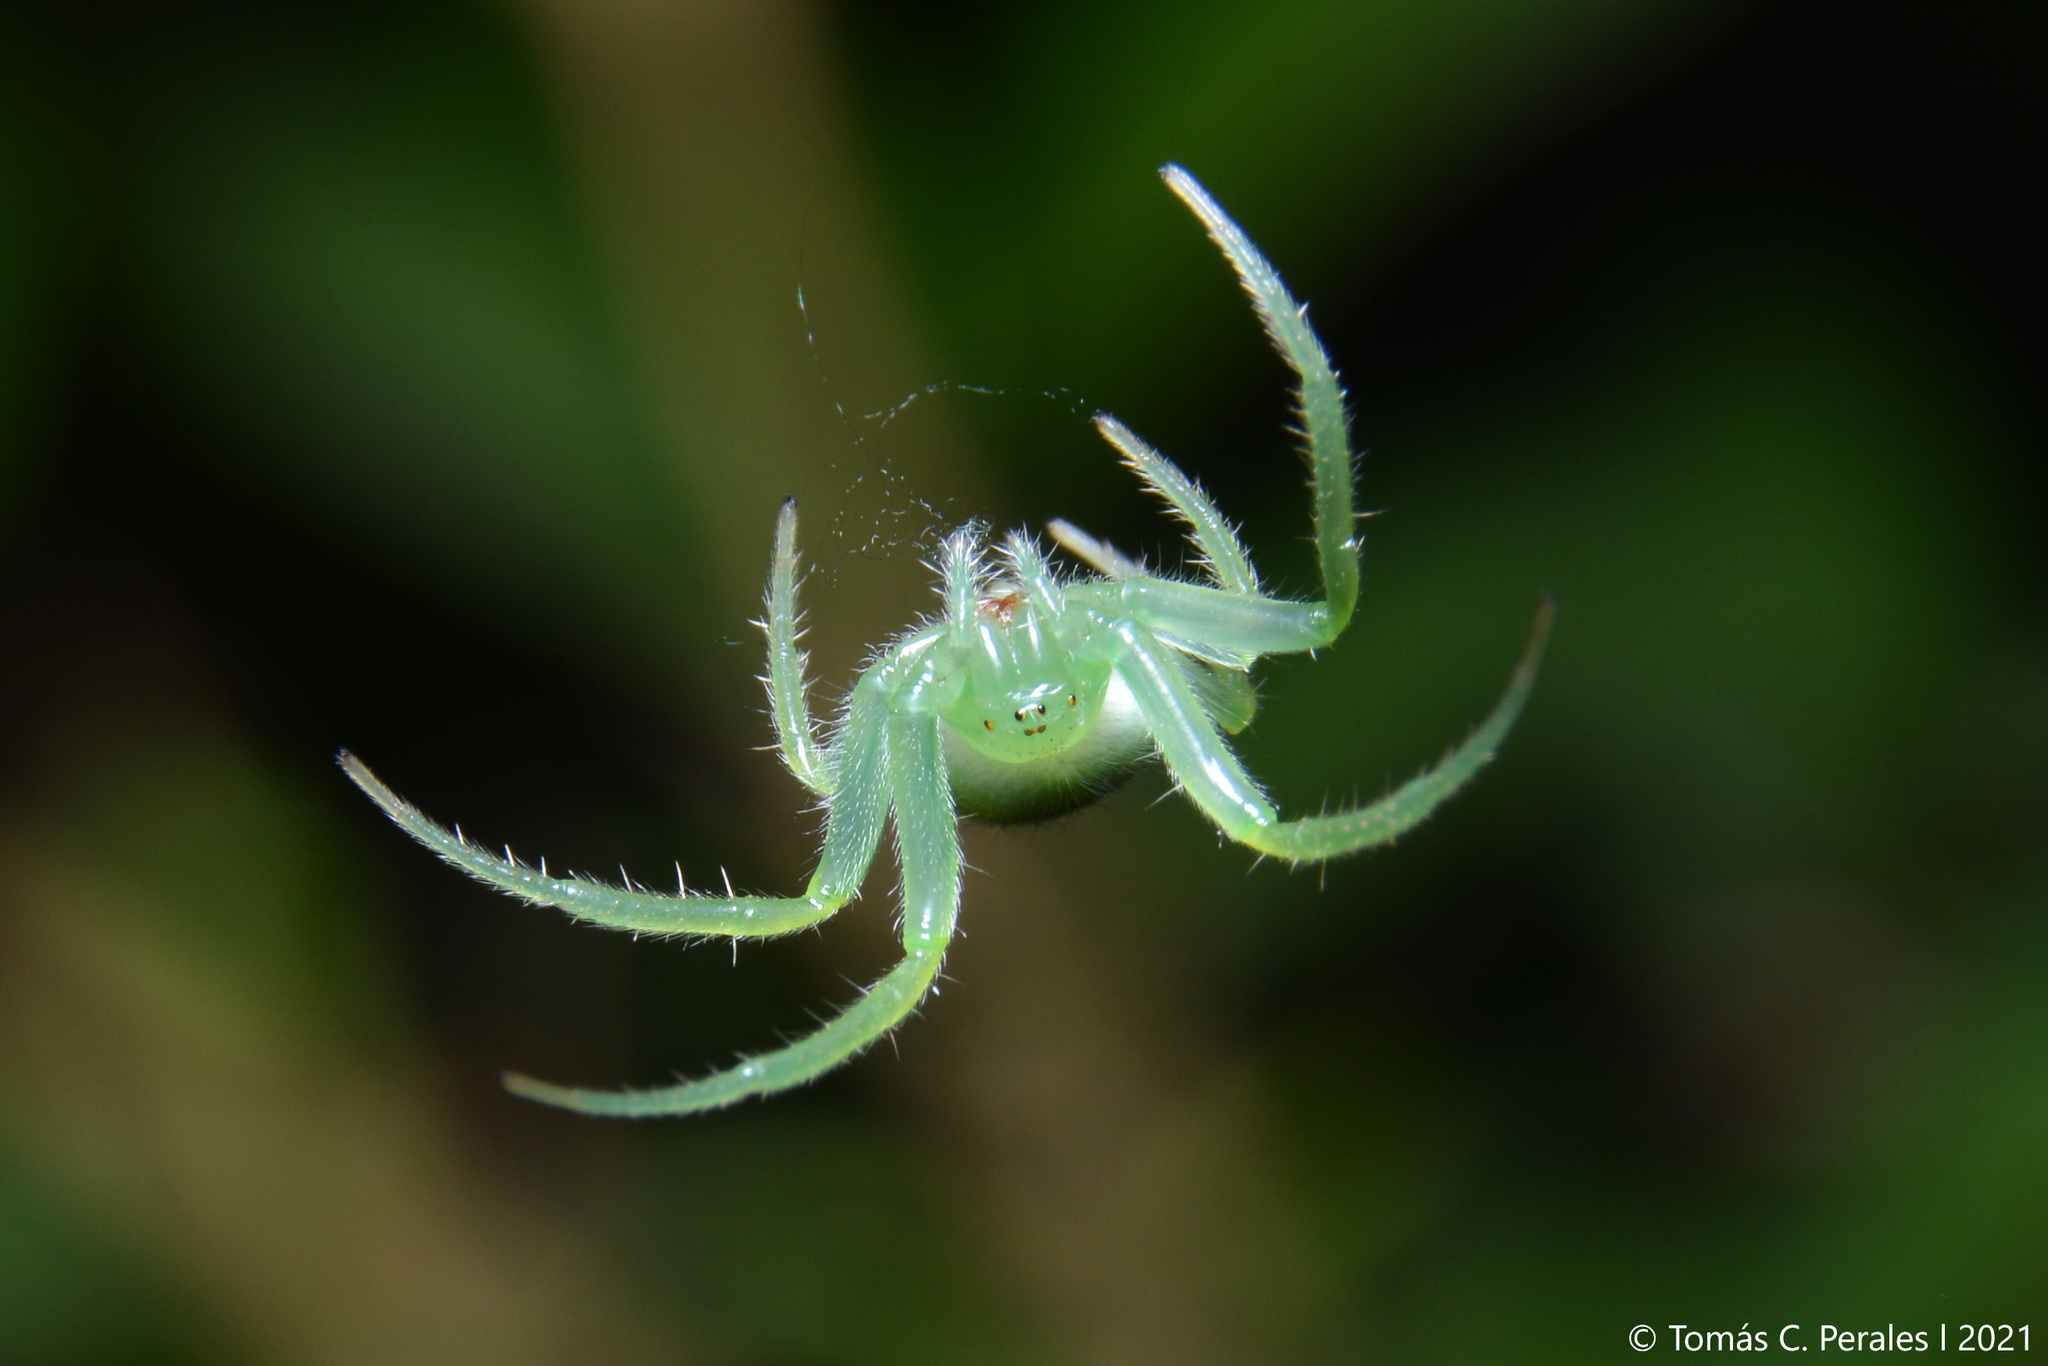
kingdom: Animalia
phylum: Arthropoda
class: Arachnida
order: Araneae
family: Araneidae
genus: Araneus
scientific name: Araneus uniformis
